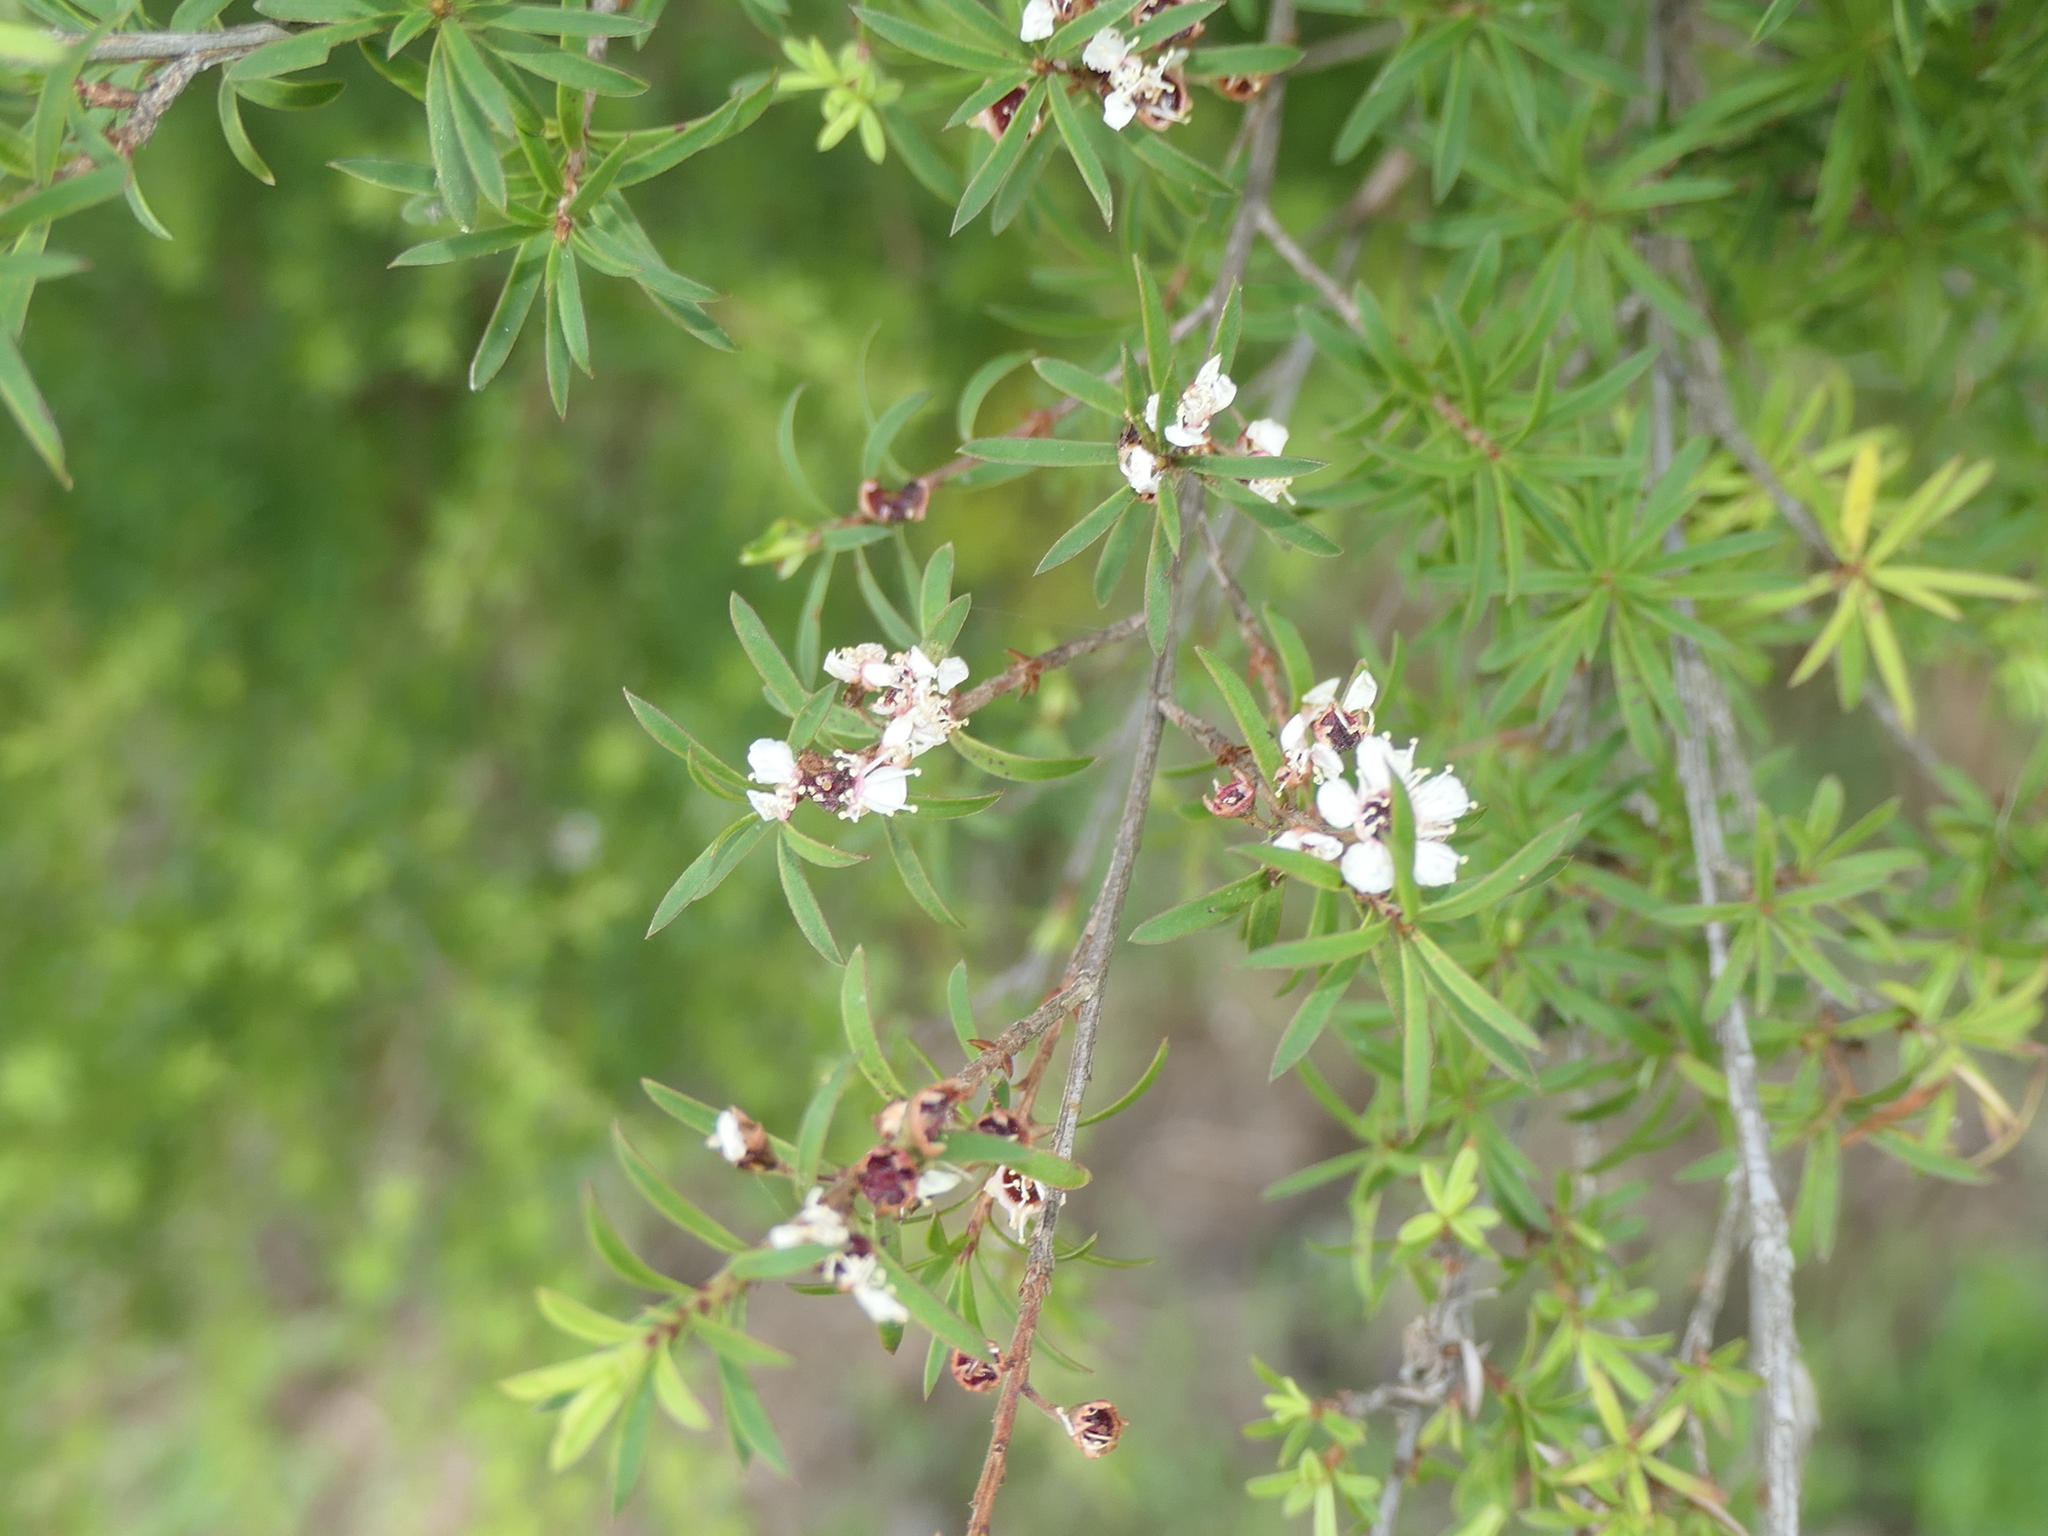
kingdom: Plantae
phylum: Tracheophyta
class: Magnoliopsida
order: Myrtales
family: Myrtaceae
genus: Kunzea
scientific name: Kunzea robusta
